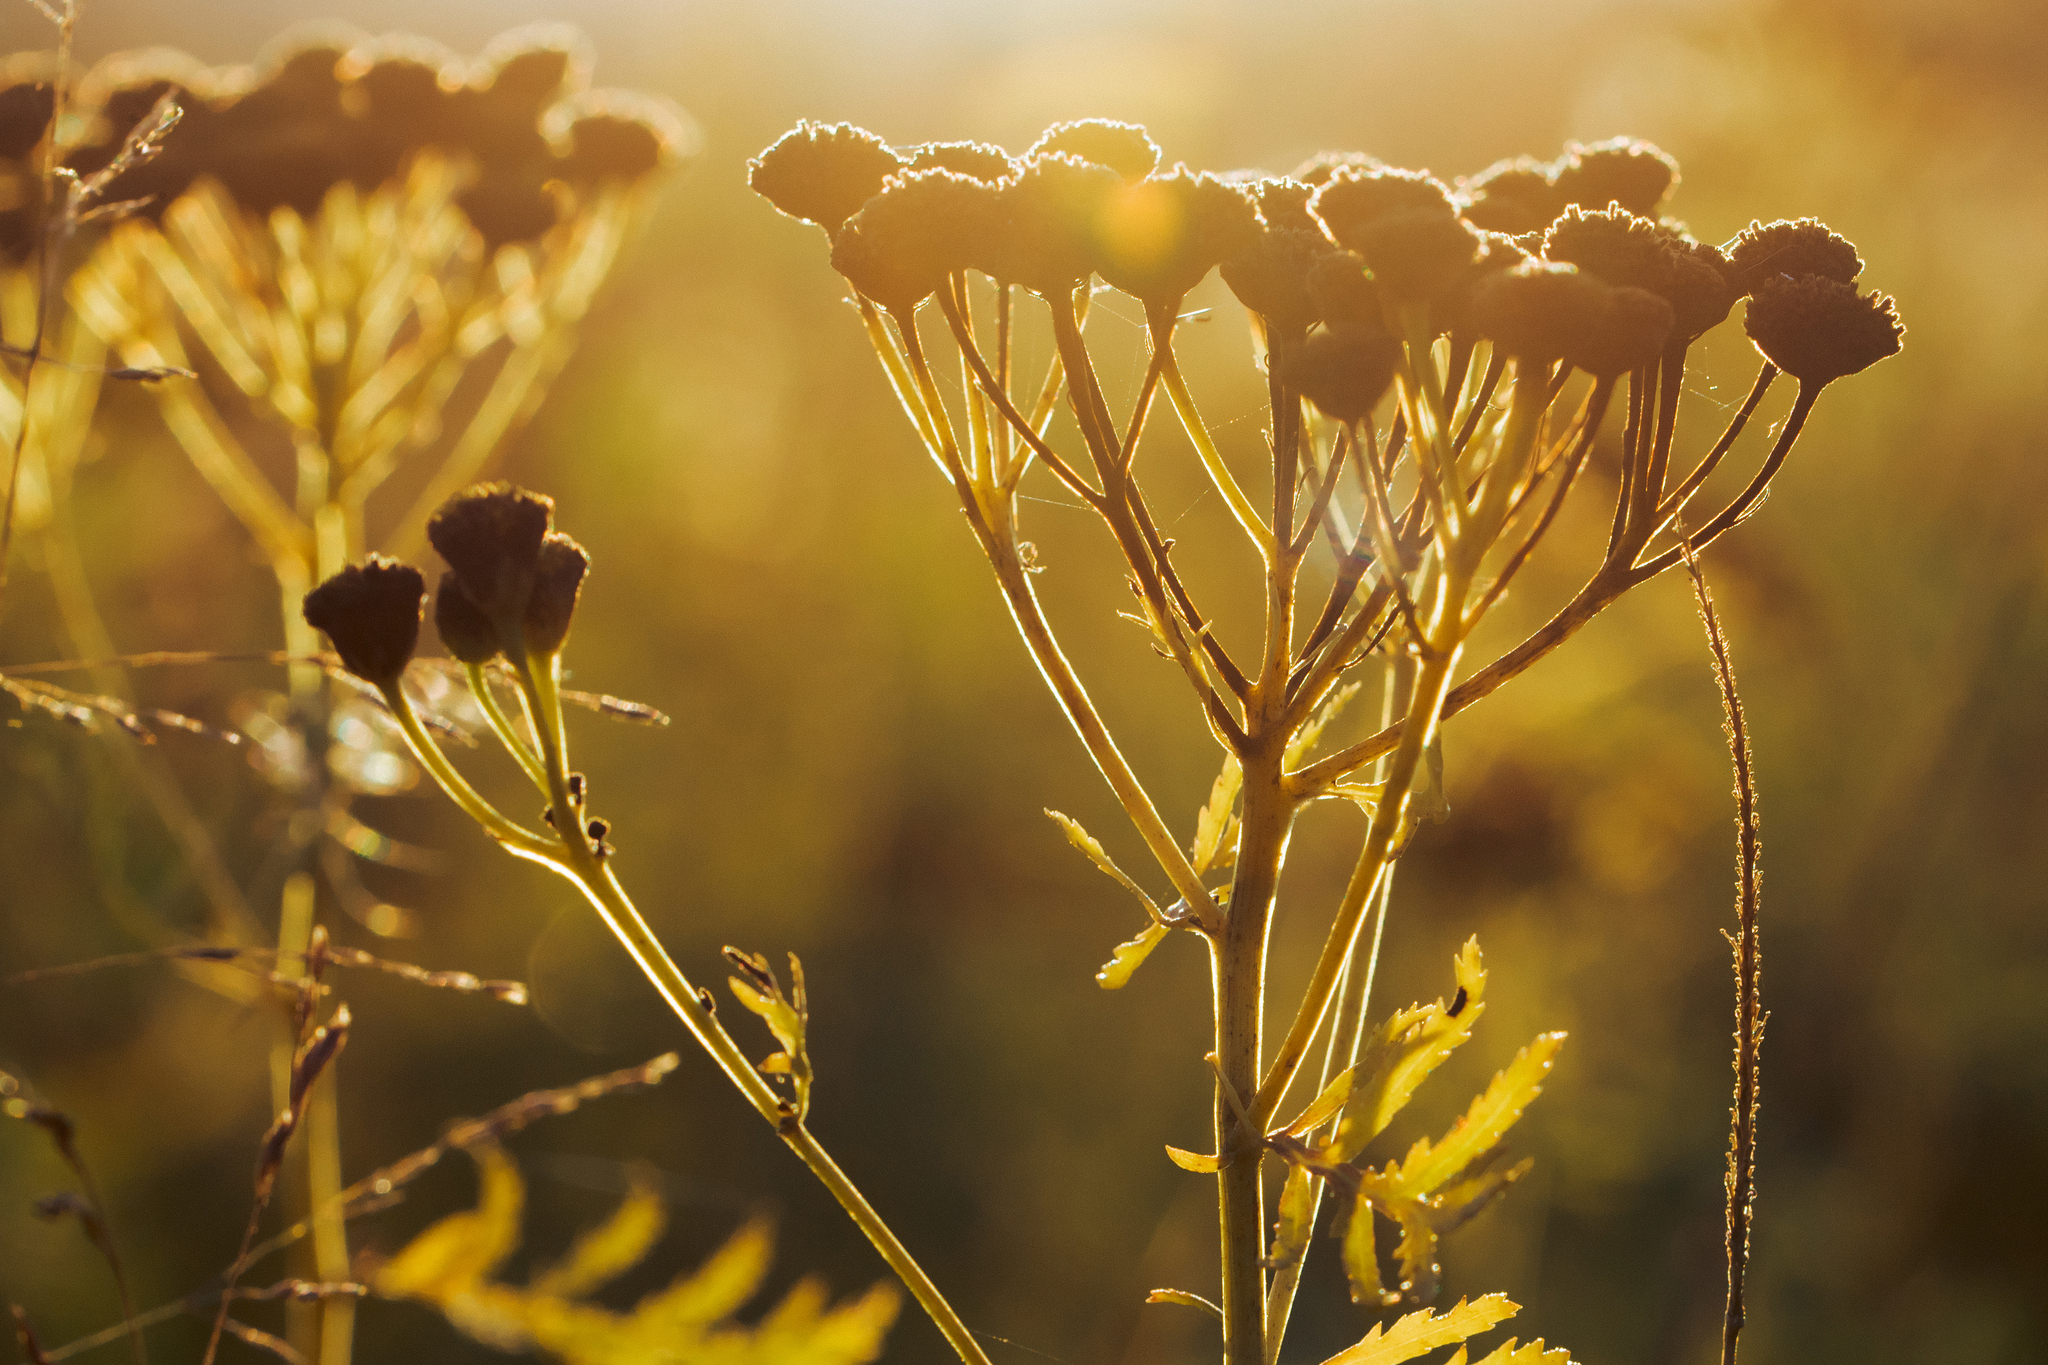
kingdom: Plantae
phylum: Tracheophyta
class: Magnoliopsida
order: Asterales
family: Asteraceae
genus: Tanacetum
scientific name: Tanacetum vulgare
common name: Common tansy
